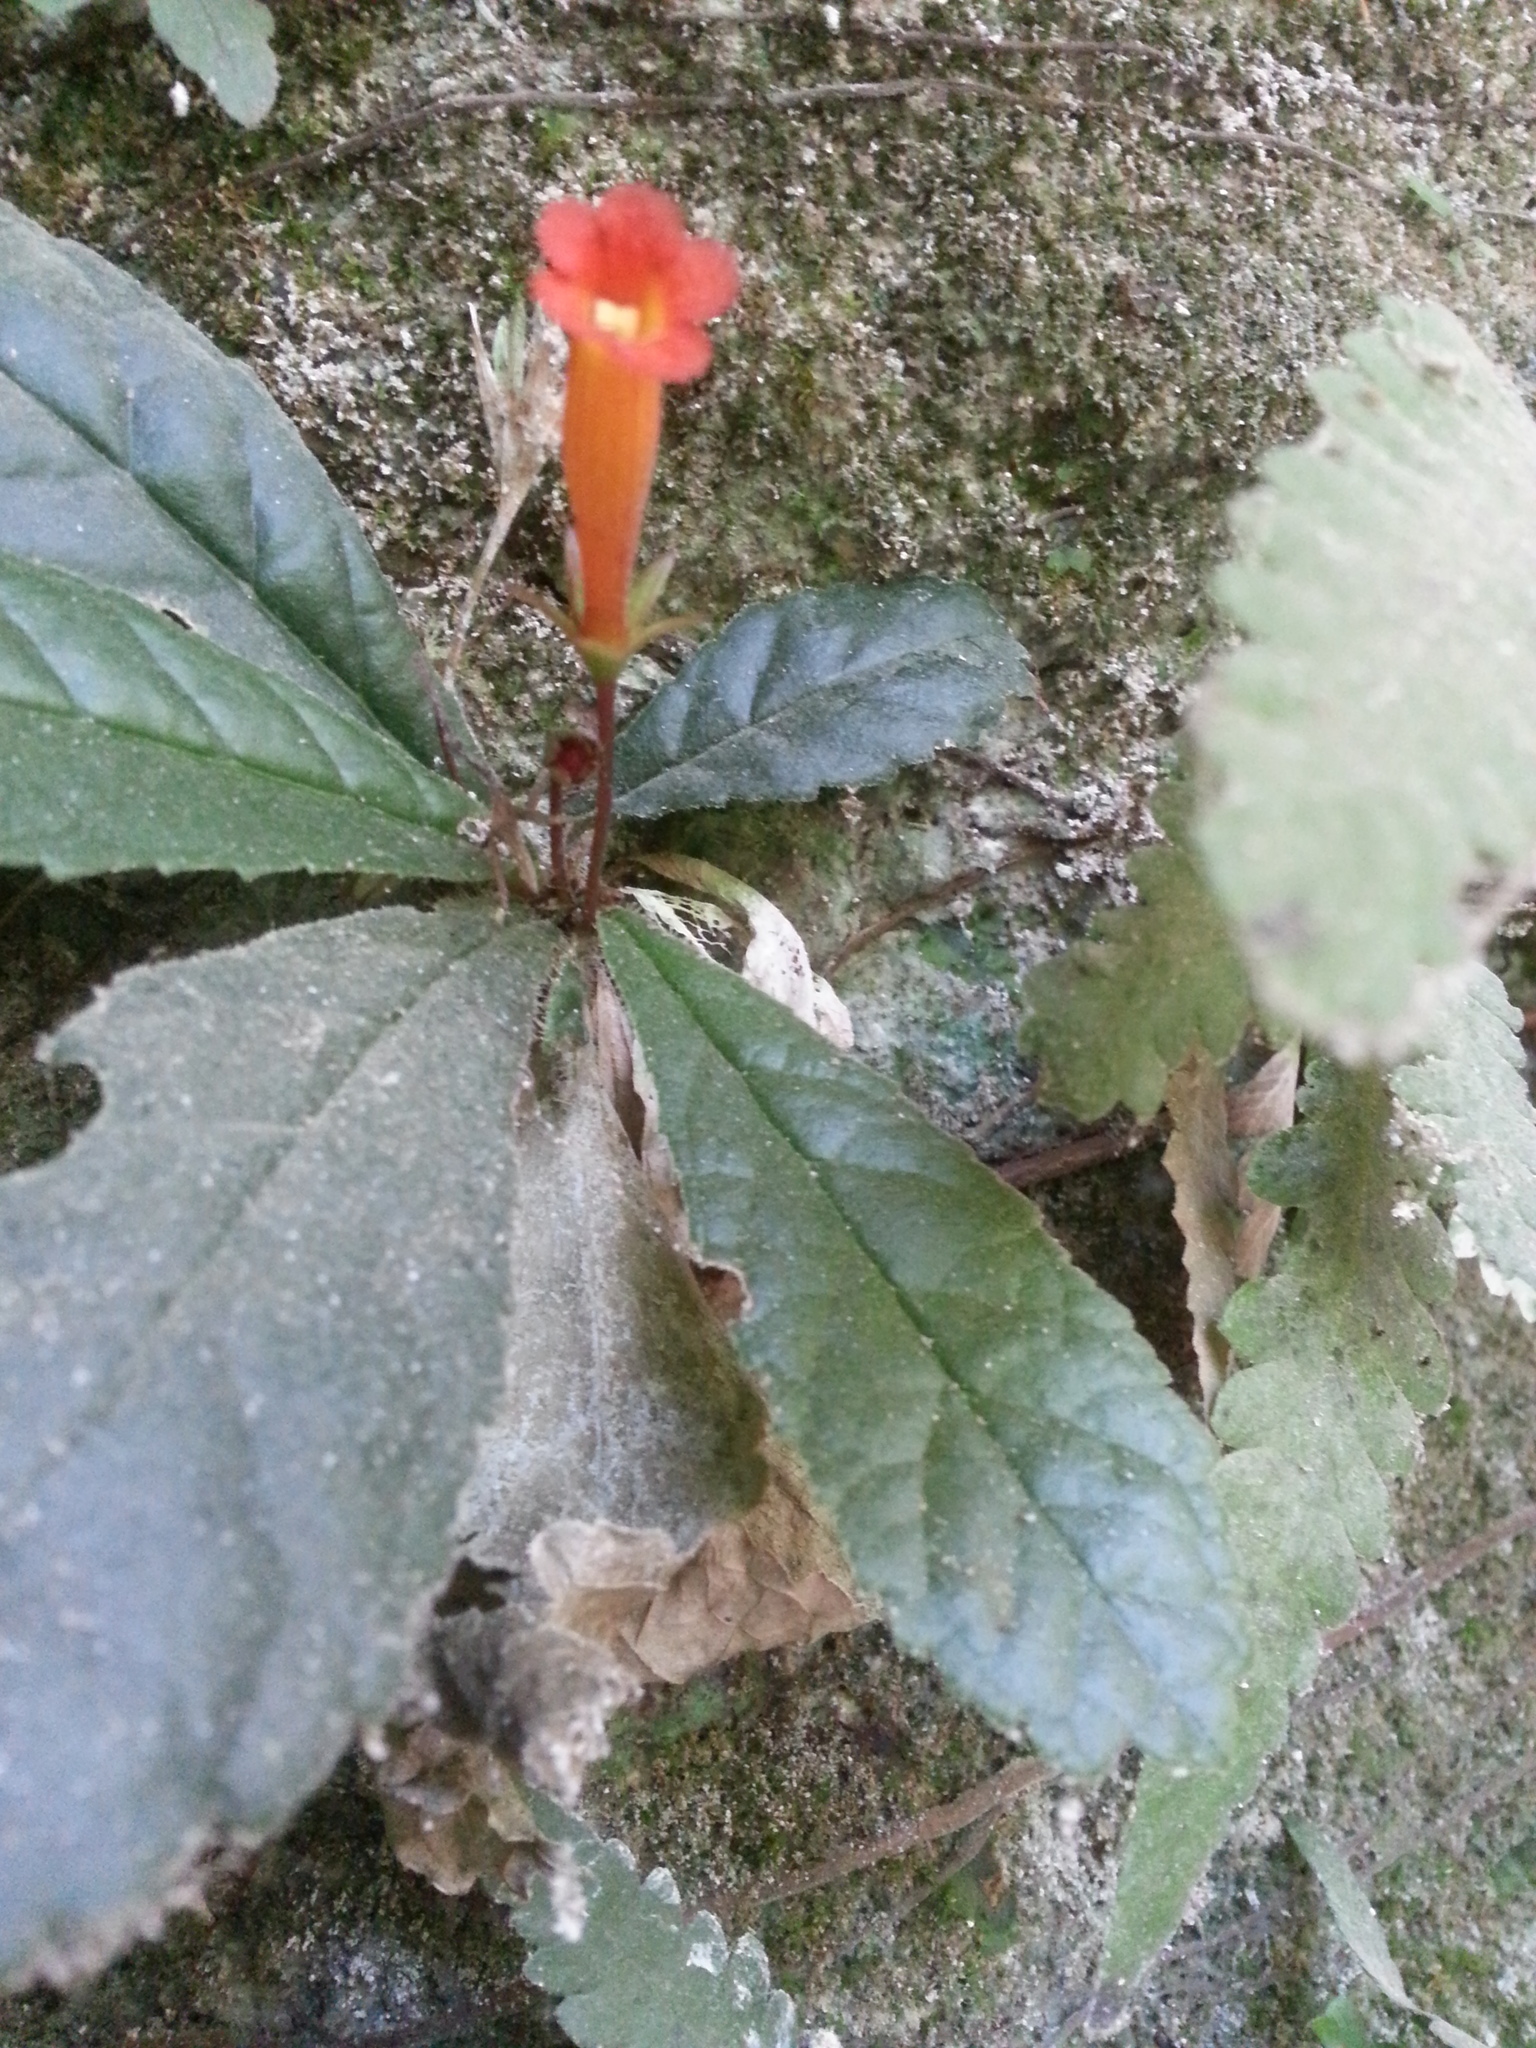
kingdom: Plantae
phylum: Tracheophyta
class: Magnoliopsida
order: Lamiales
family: Gesneriaceae
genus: Gesneria
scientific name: Gesneria cuneifolia
